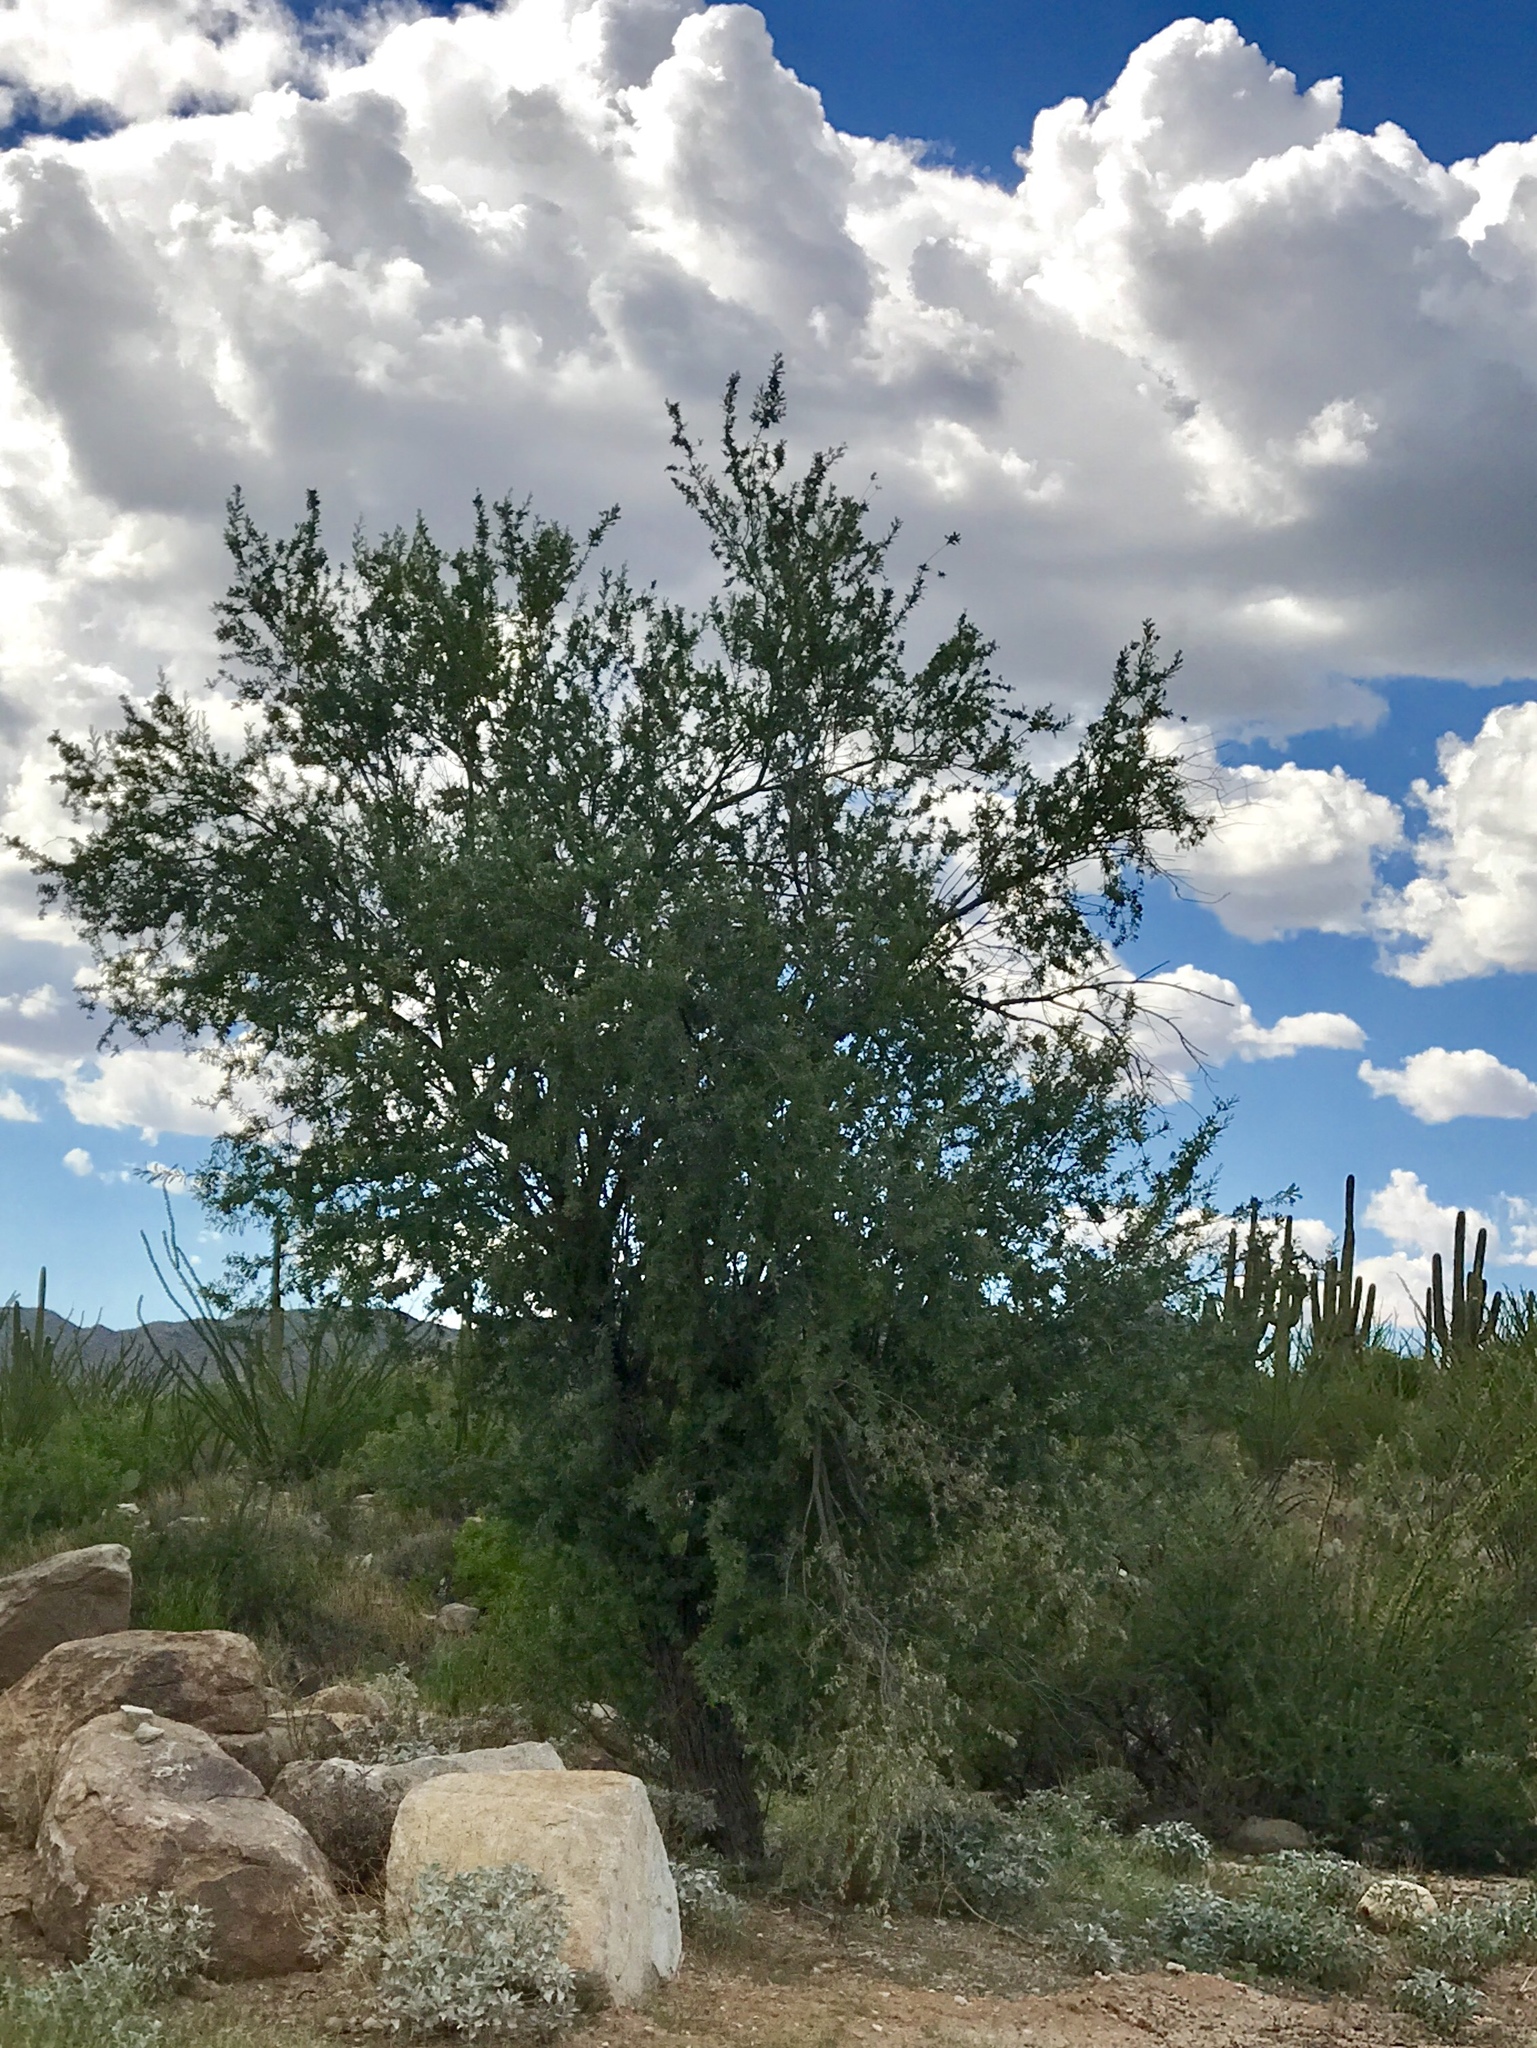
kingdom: Plantae
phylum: Tracheophyta
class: Magnoliopsida
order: Fabales
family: Fabaceae
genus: Olneya
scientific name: Olneya tesota
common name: Desert ironwood
